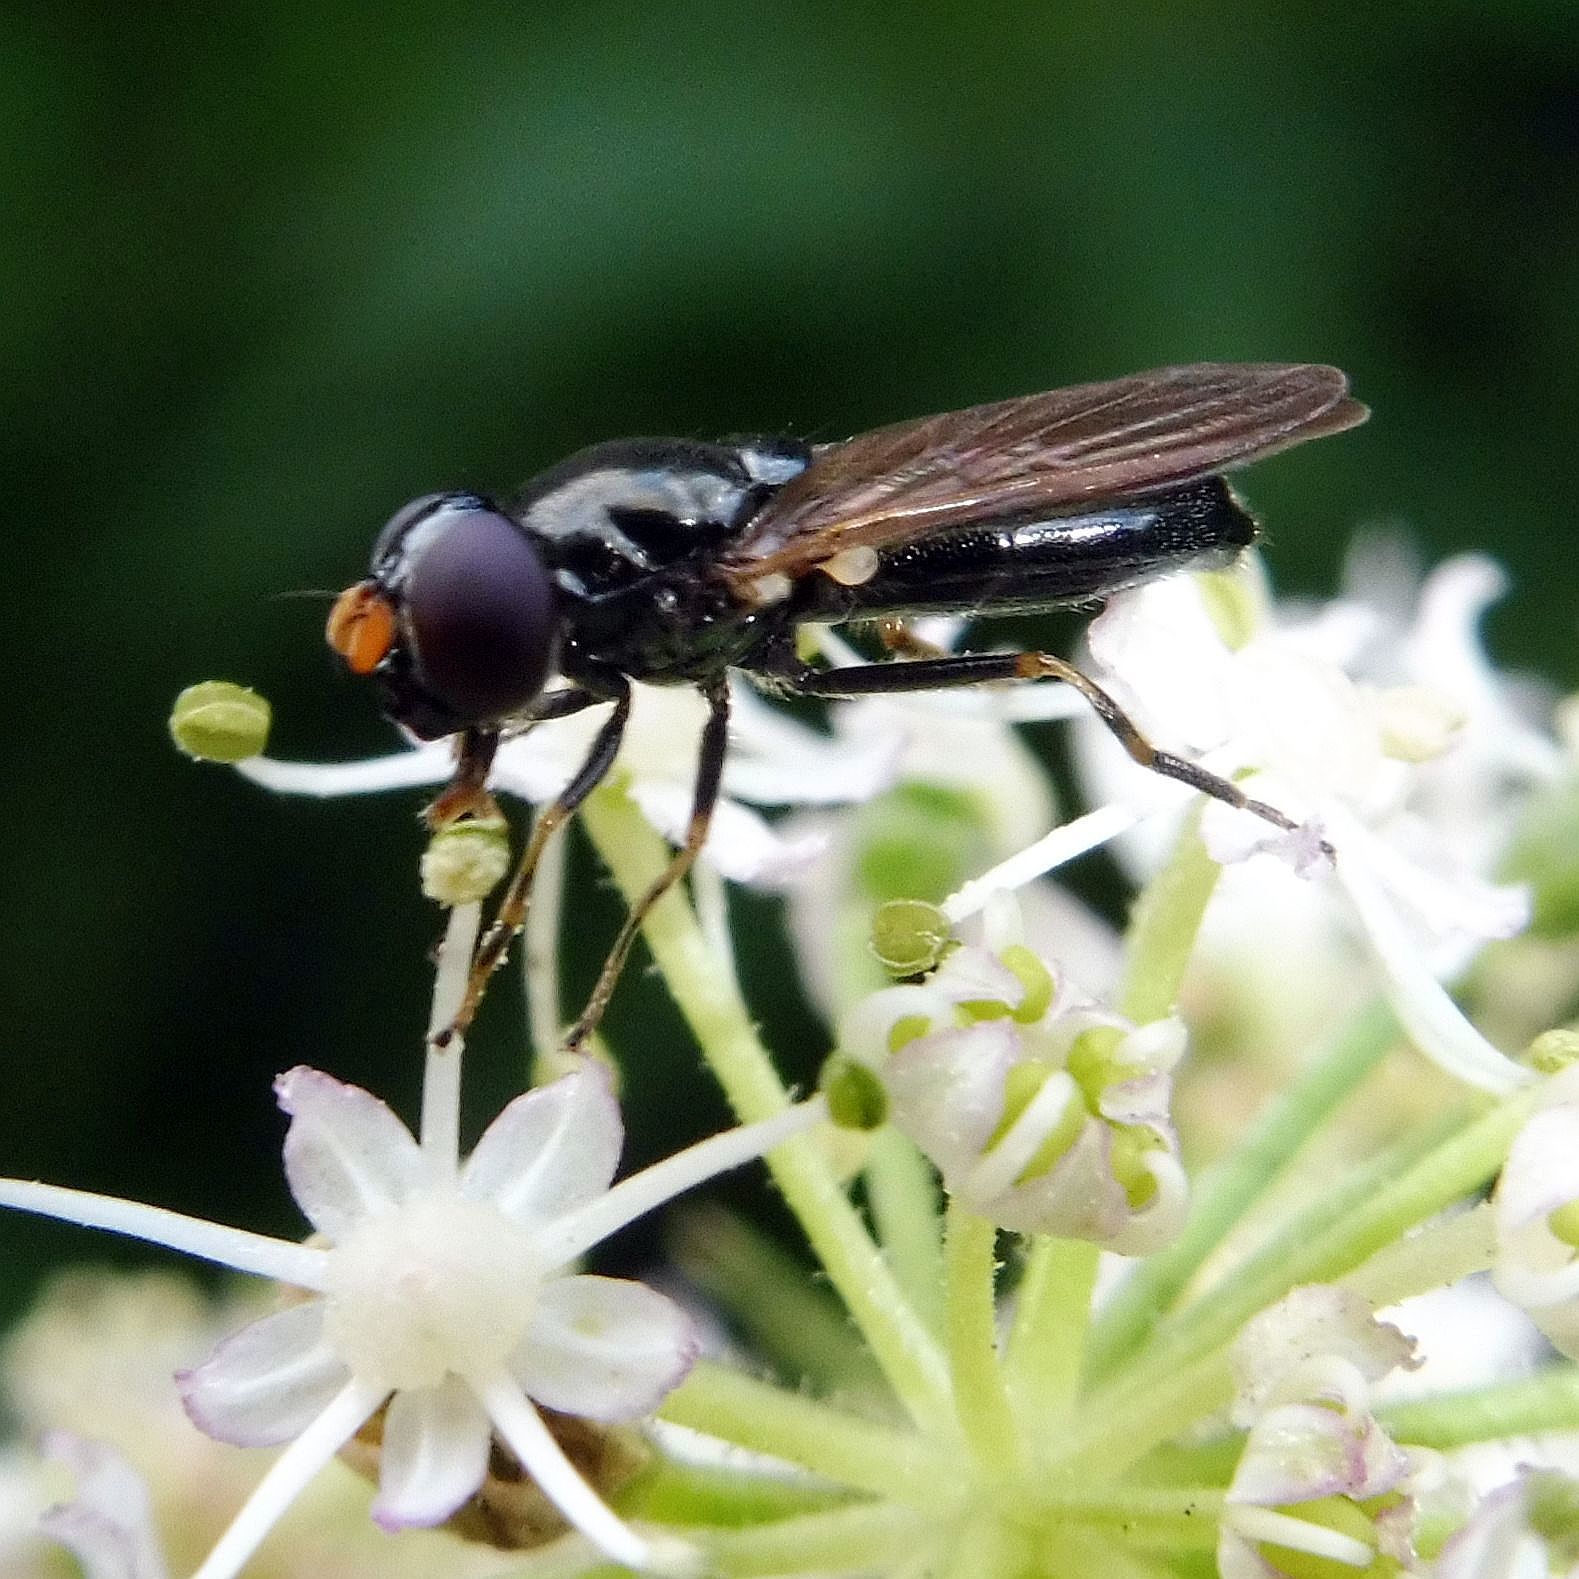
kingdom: Animalia
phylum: Arthropoda
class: Insecta
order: Diptera
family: Syrphidae
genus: Cheilosia
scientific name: Cheilosia pagana
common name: Hover fly
